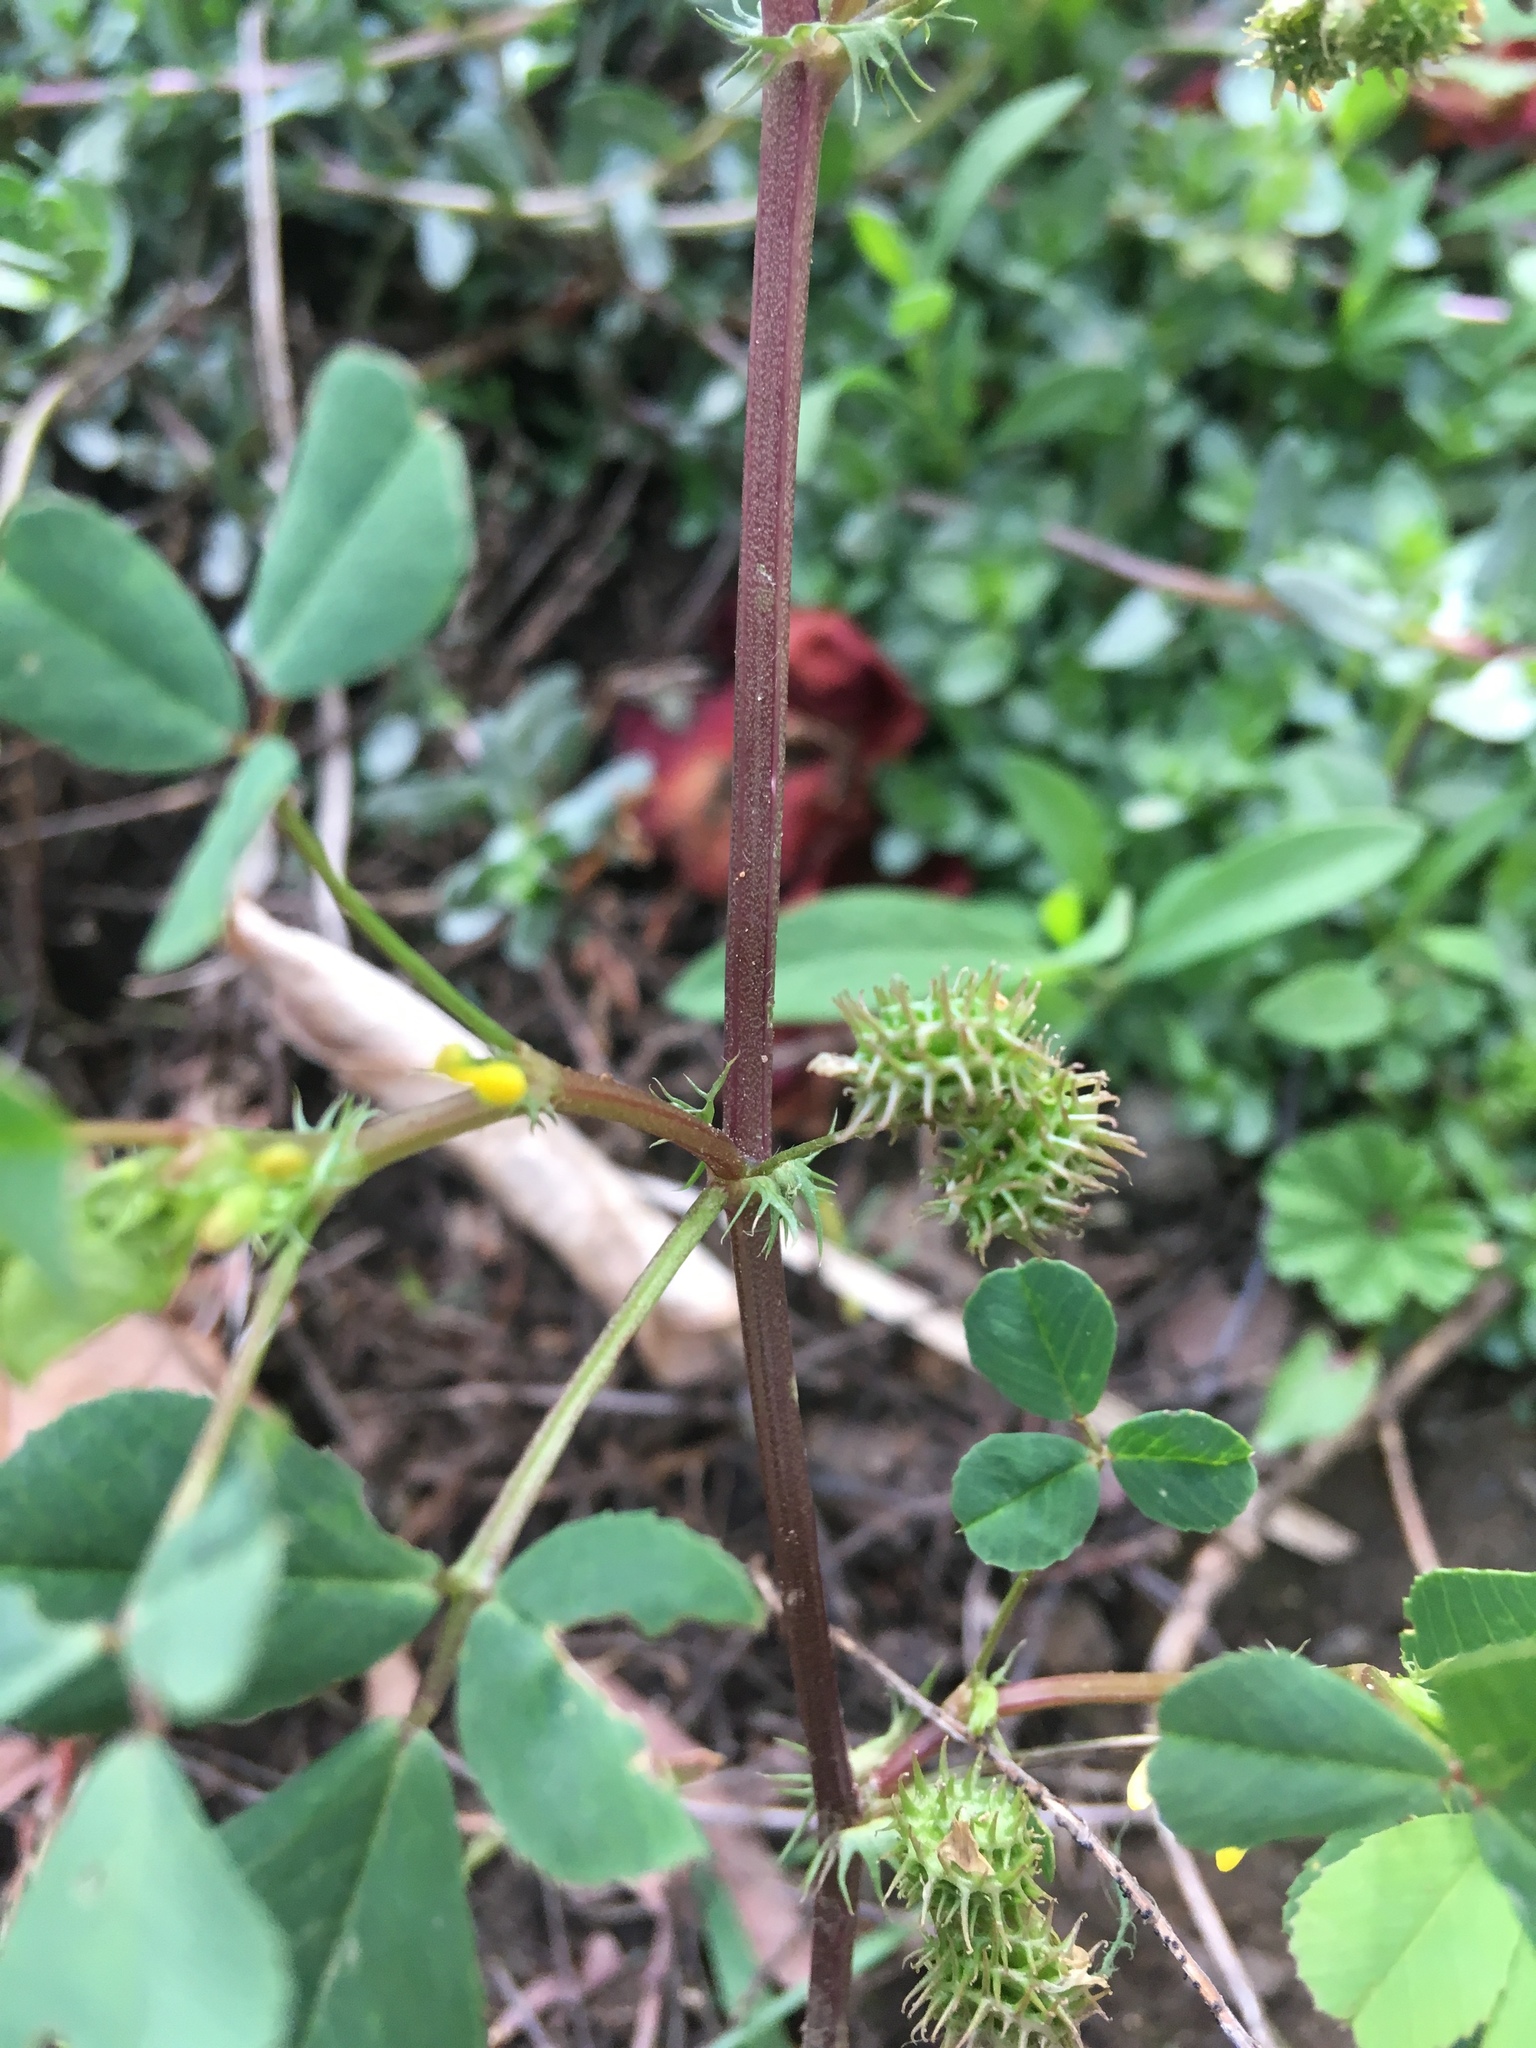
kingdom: Plantae
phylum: Tracheophyta
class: Magnoliopsida
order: Fabales
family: Fabaceae
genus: Medicago
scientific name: Medicago polymorpha
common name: Burclover
